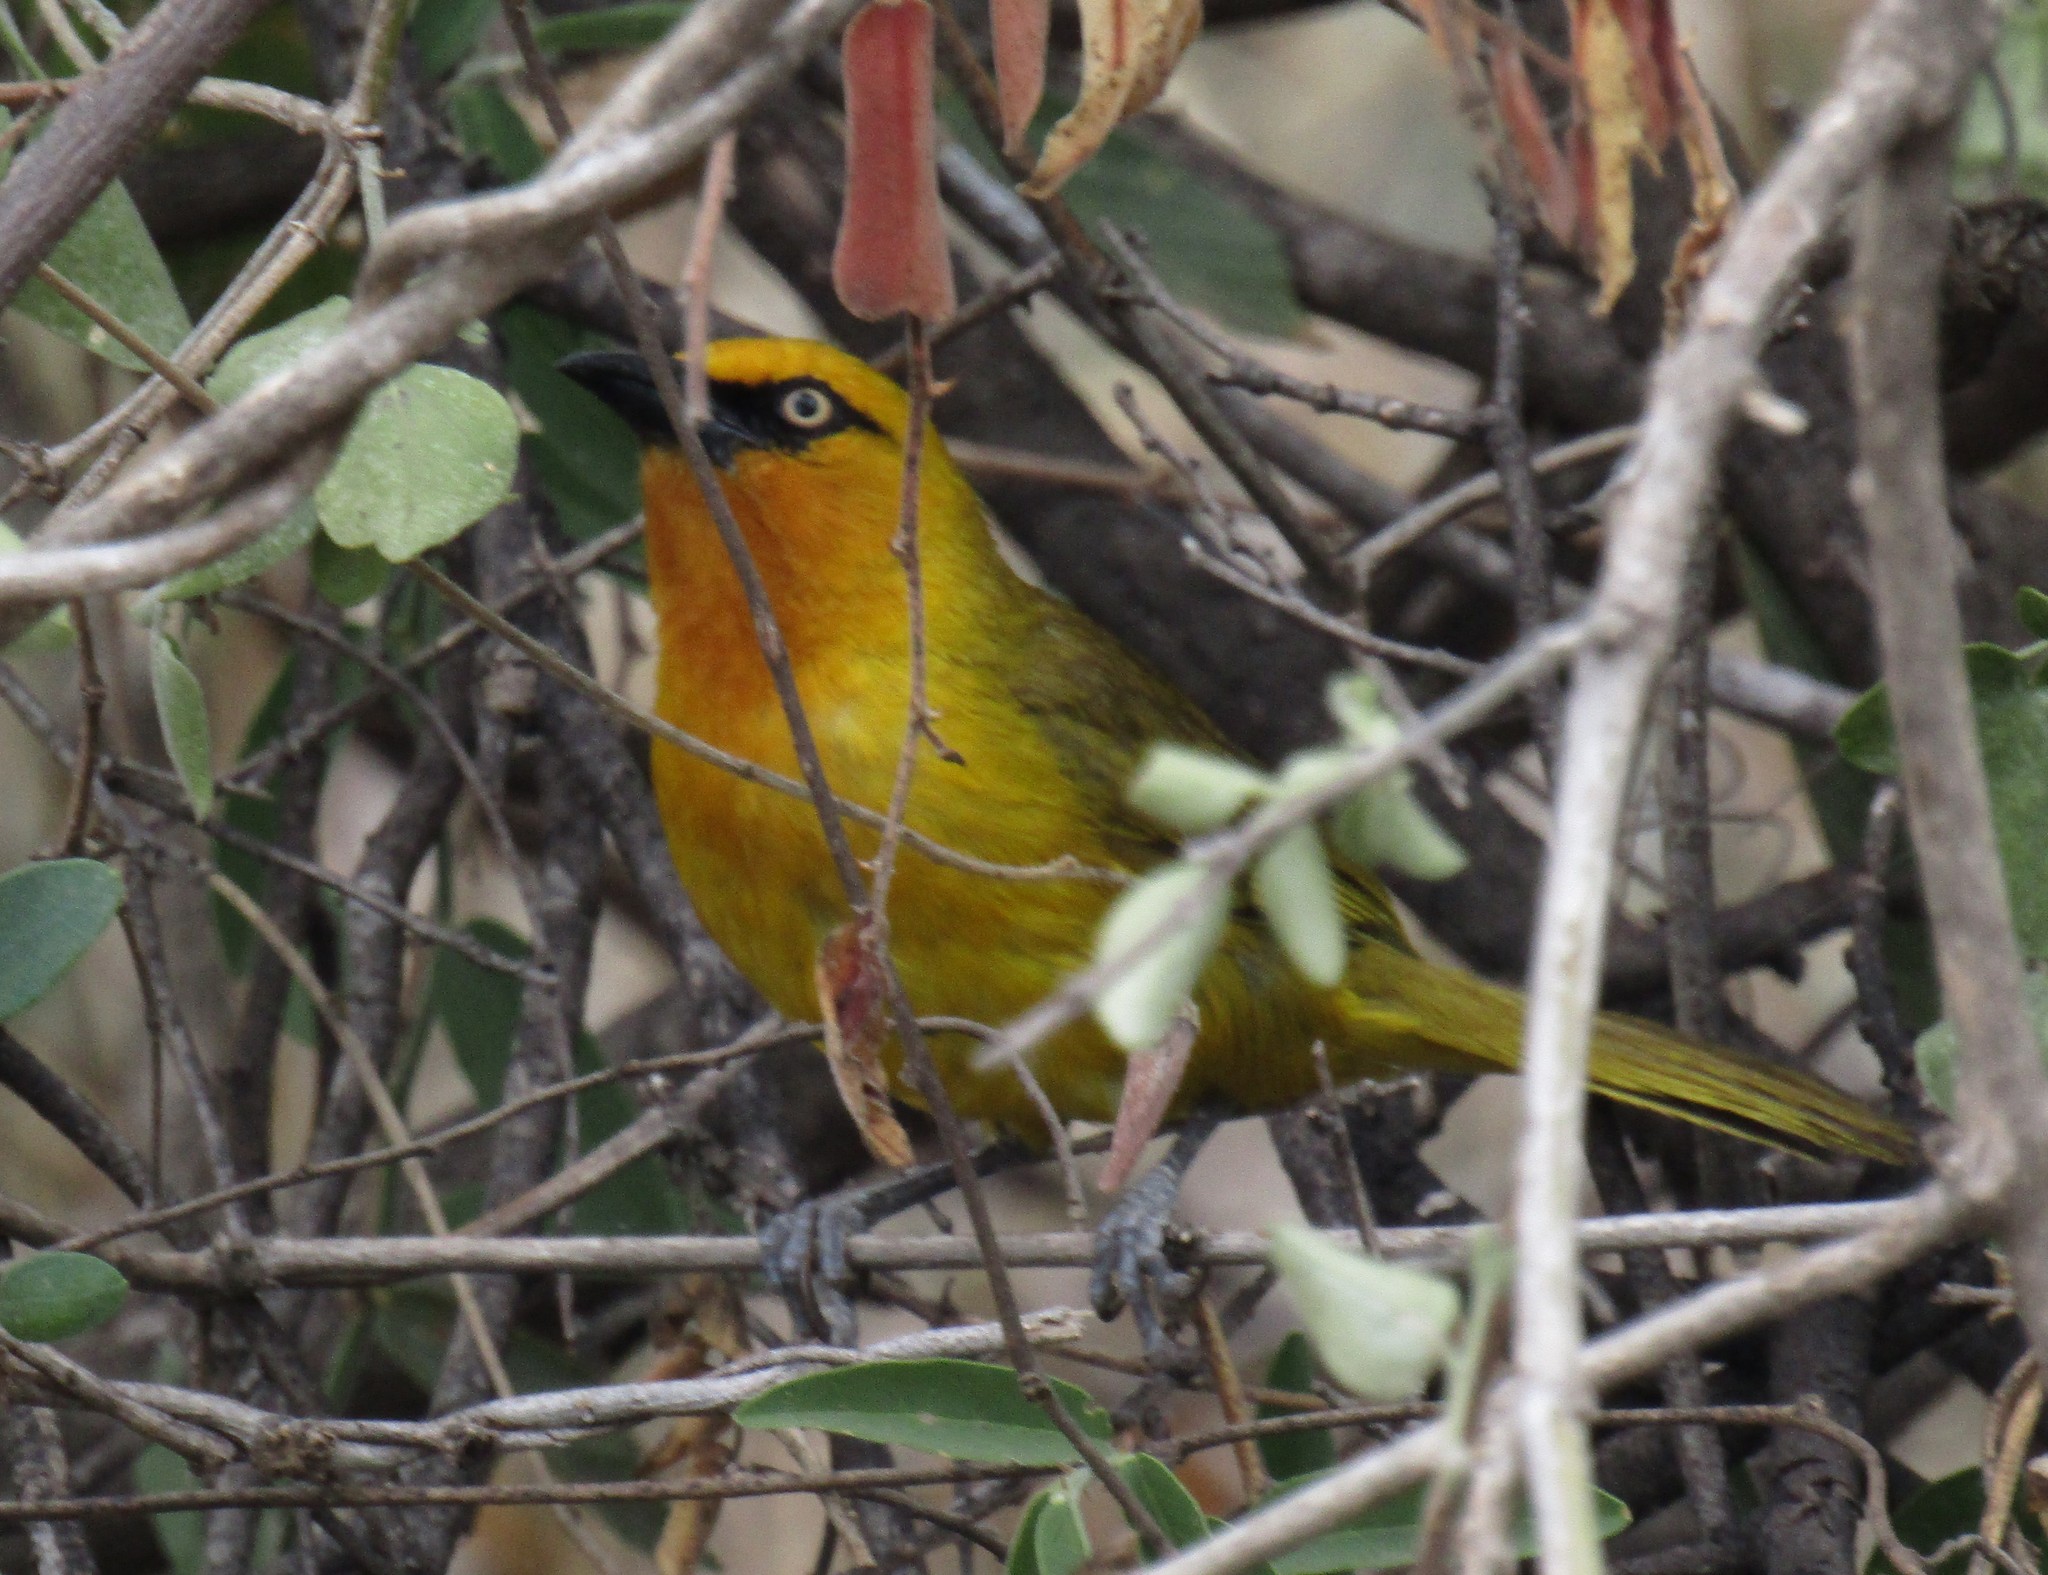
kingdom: Animalia
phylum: Chordata
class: Aves
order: Passeriformes
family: Ploceidae
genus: Ploceus
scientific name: Ploceus ocularis
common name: Spectacled weaver
